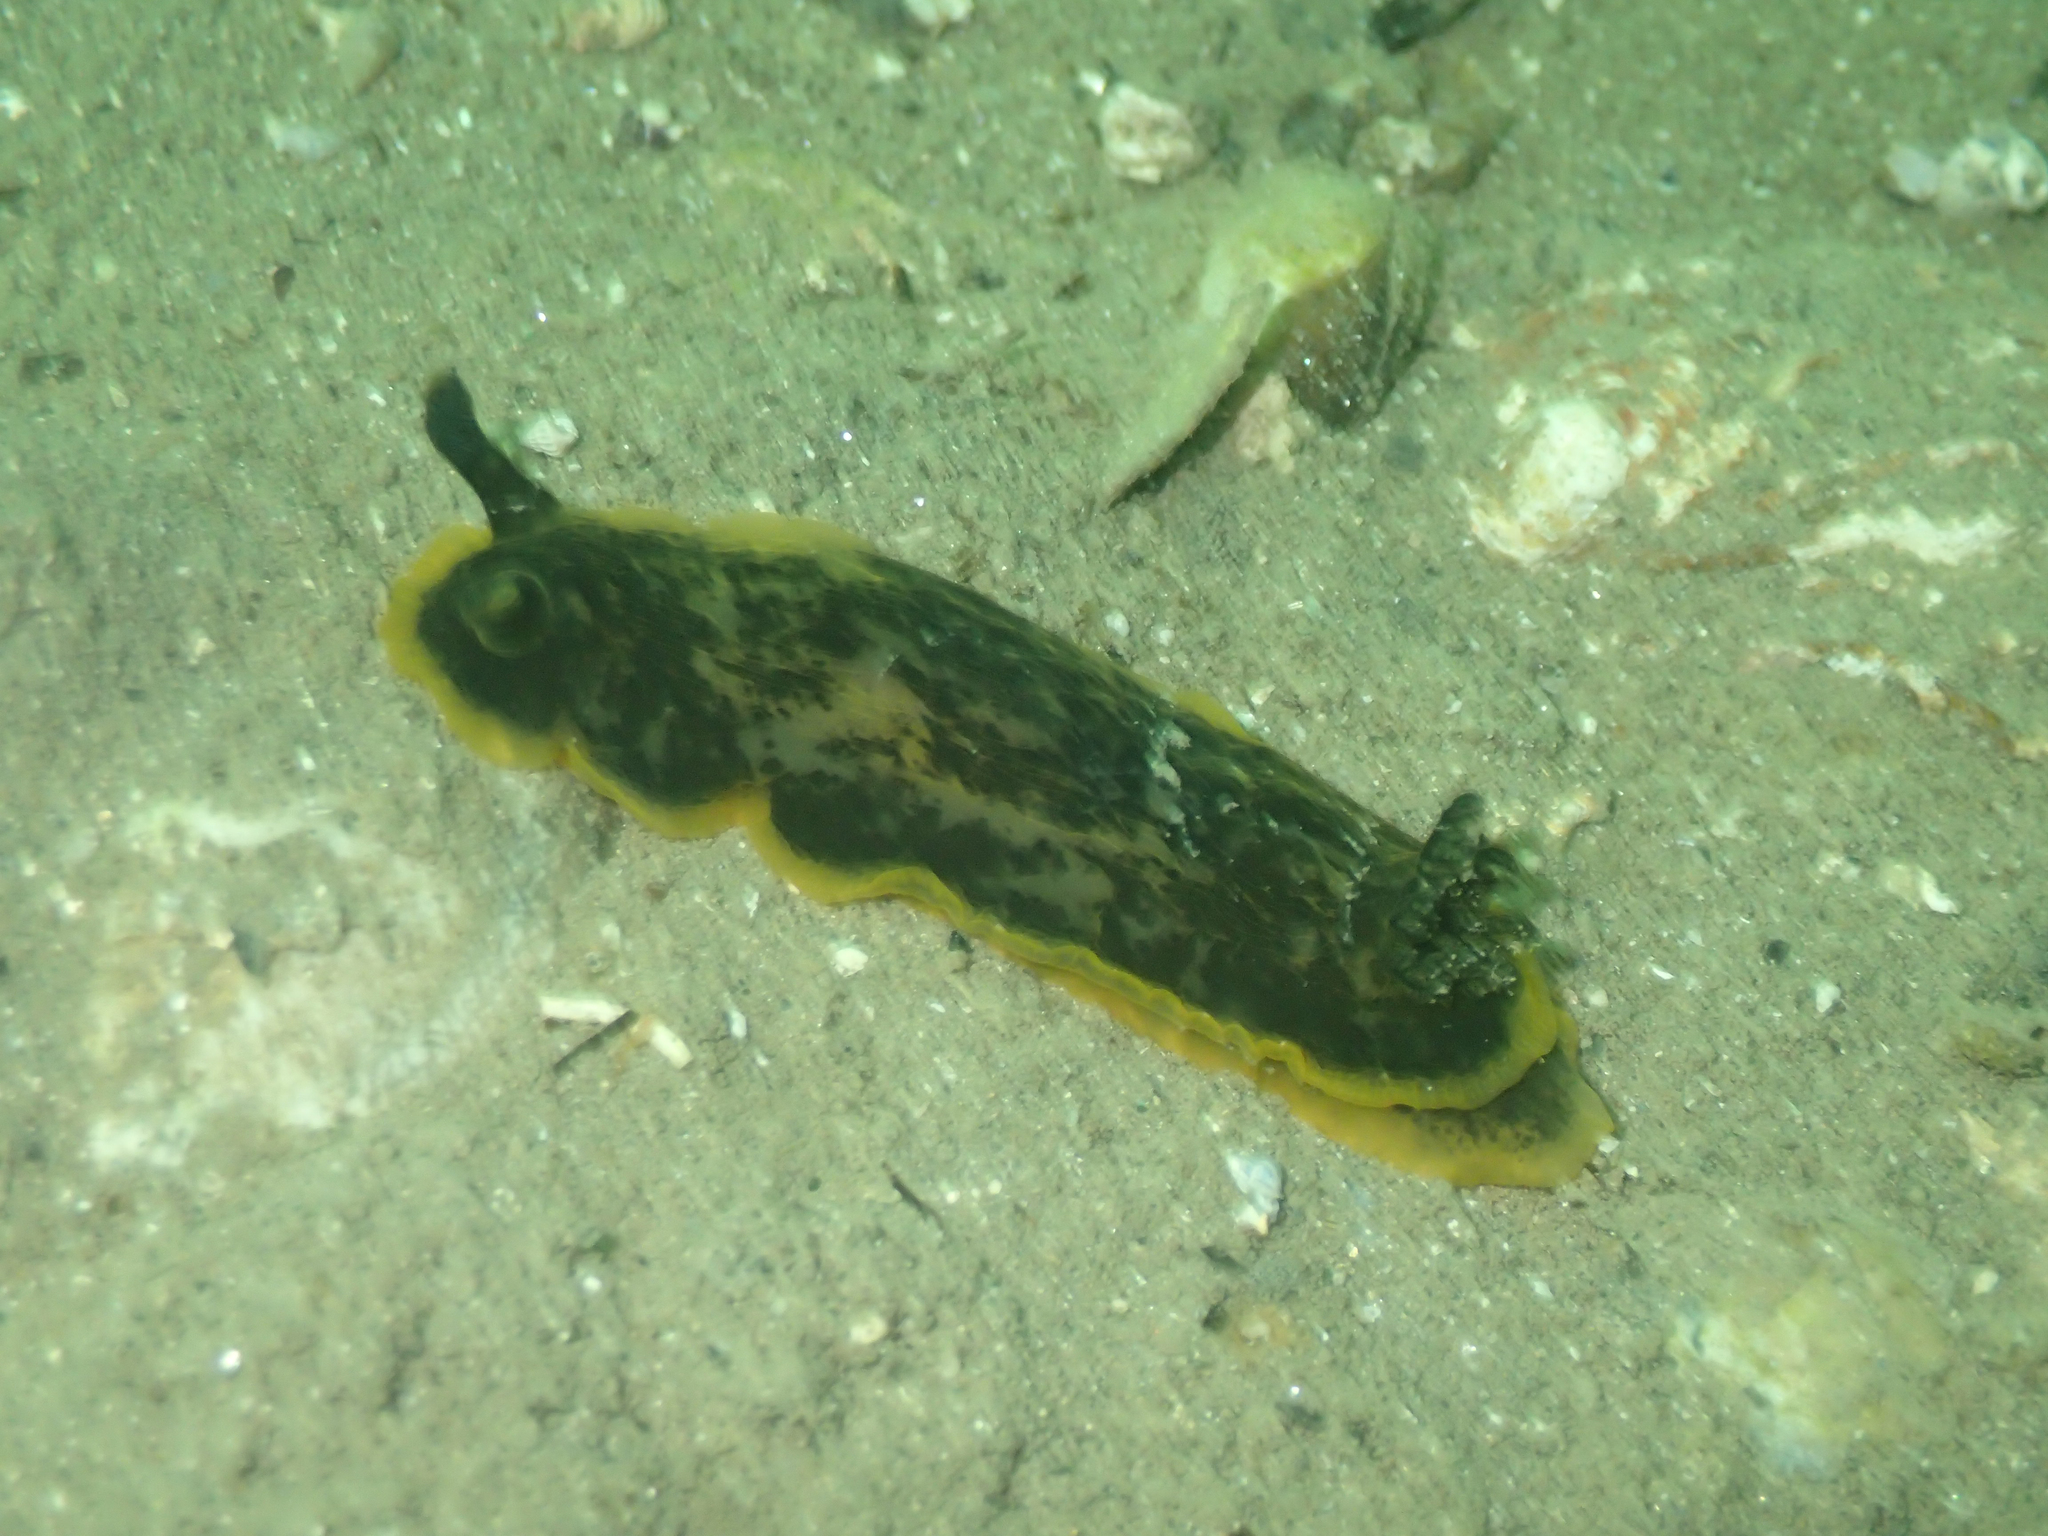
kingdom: Animalia
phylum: Mollusca
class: Gastropoda
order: Nudibranchia
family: Dendrodorididae
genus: Dendrodoris
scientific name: Dendrodoris limbata
